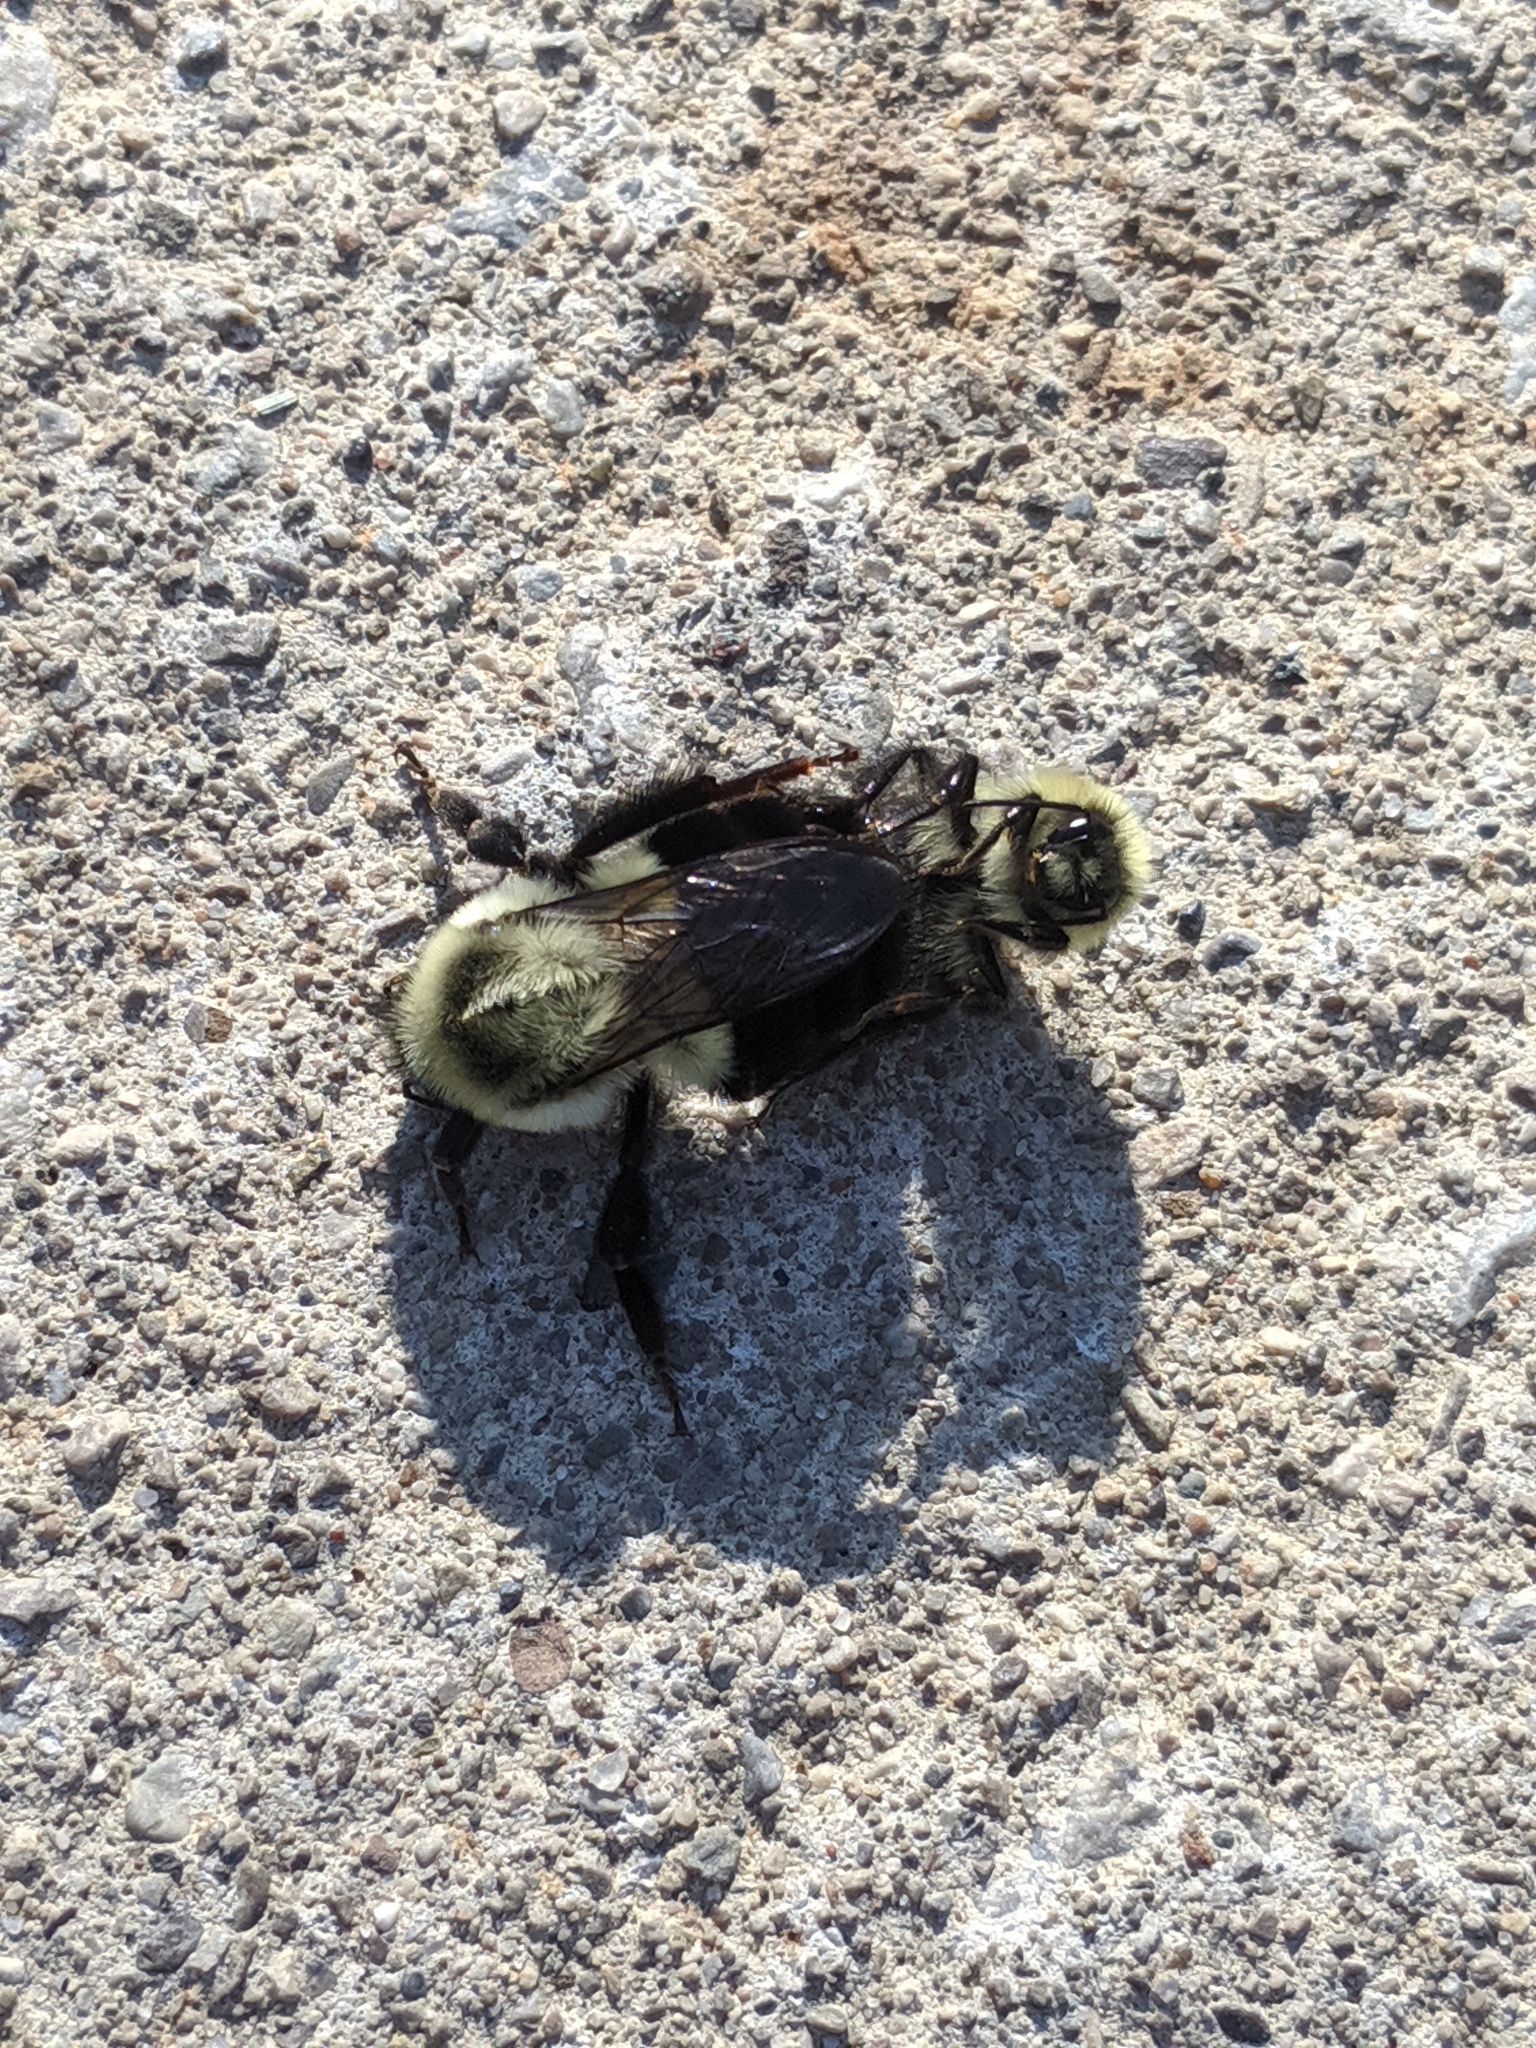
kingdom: Animalia
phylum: Arthropoda
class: Insecta
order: Hymenoptera
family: Apidae
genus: Bombus
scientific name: Bombus impatiens
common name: Common eastern bumble bee
